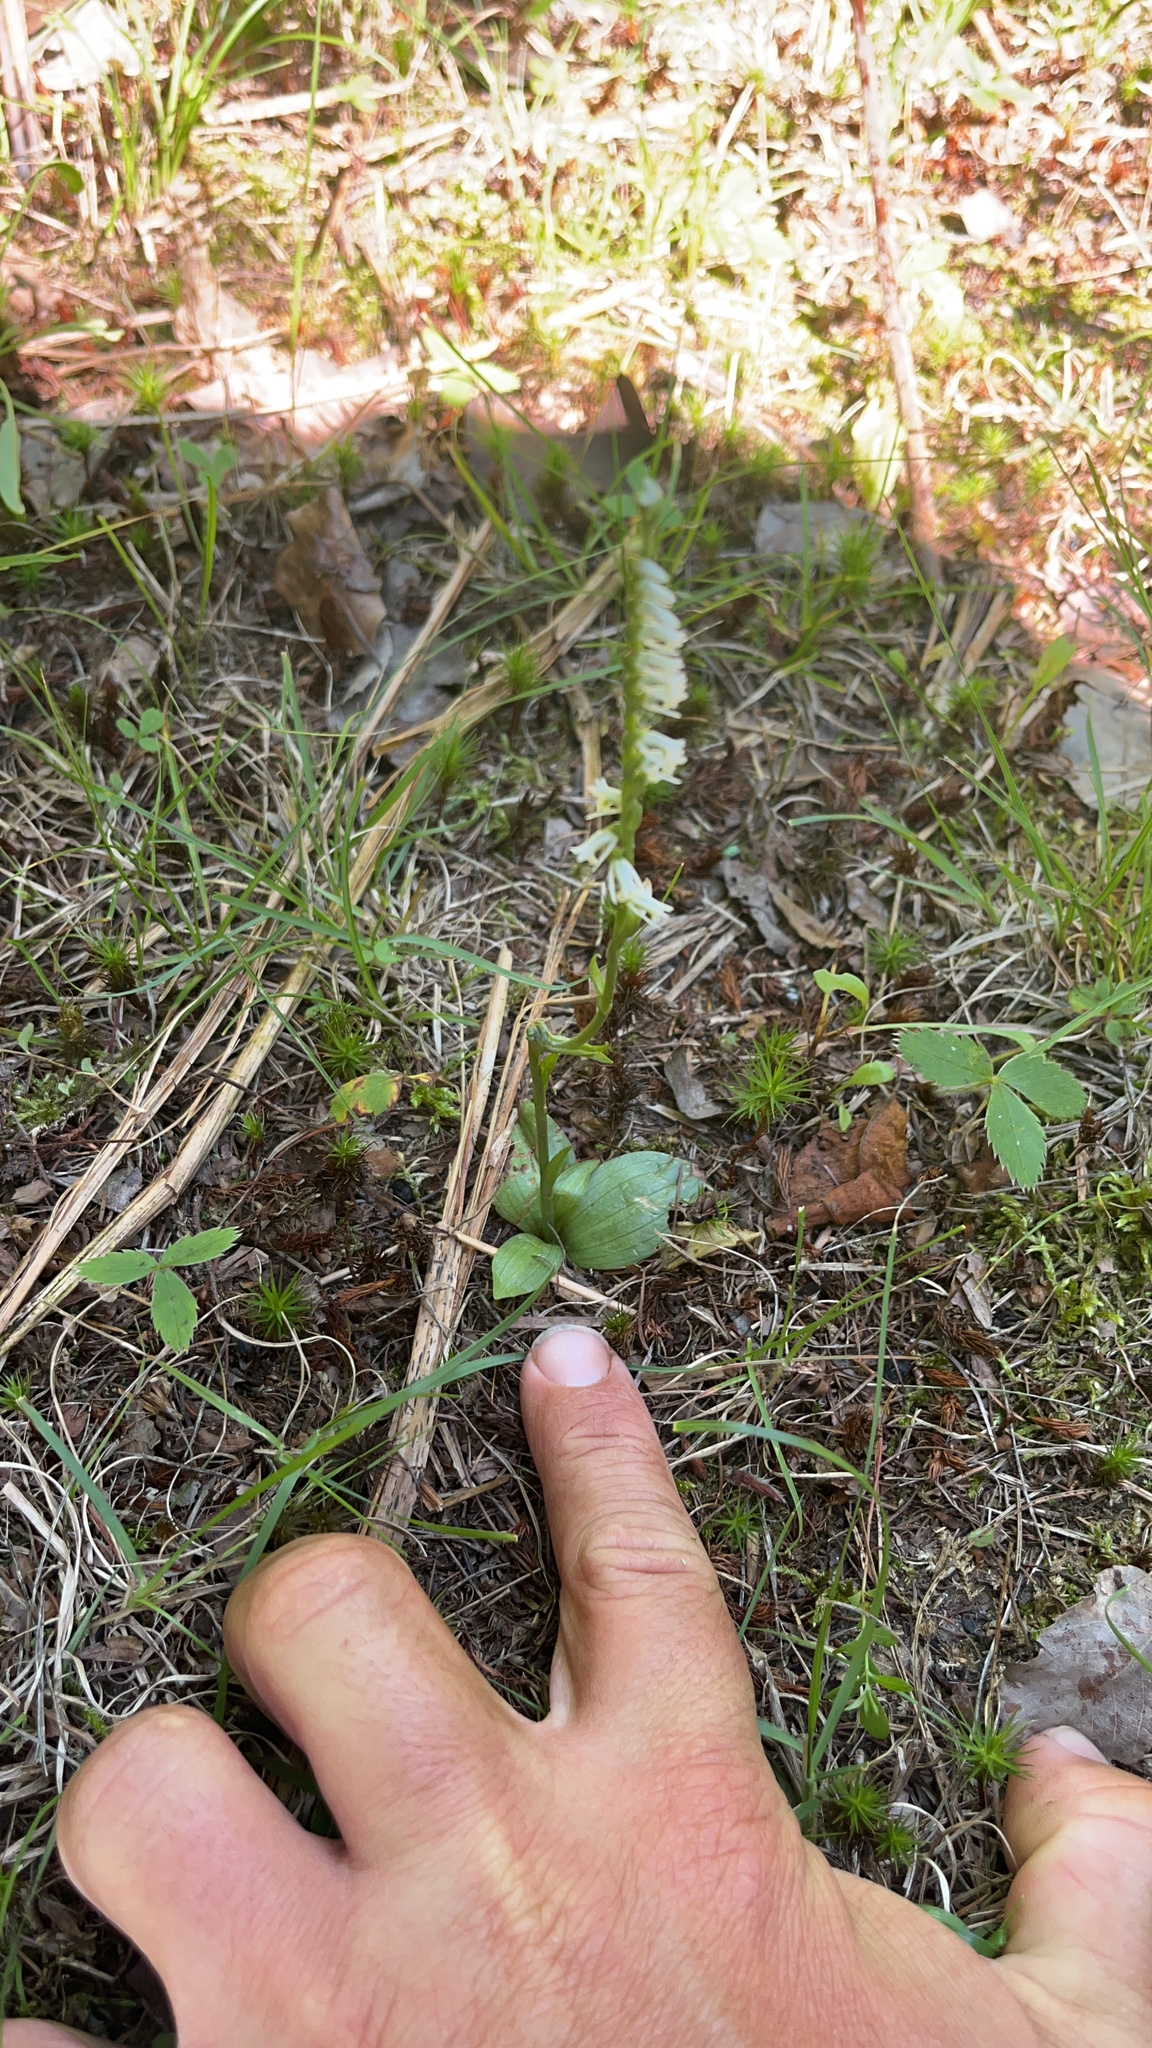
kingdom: Plantae
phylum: Tracheophyta
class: Liliopsida
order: Asparagales
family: Orchidaceae
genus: Spiranthes
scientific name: Spiranthes lacera
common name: Northern slender ladies'-tresses
